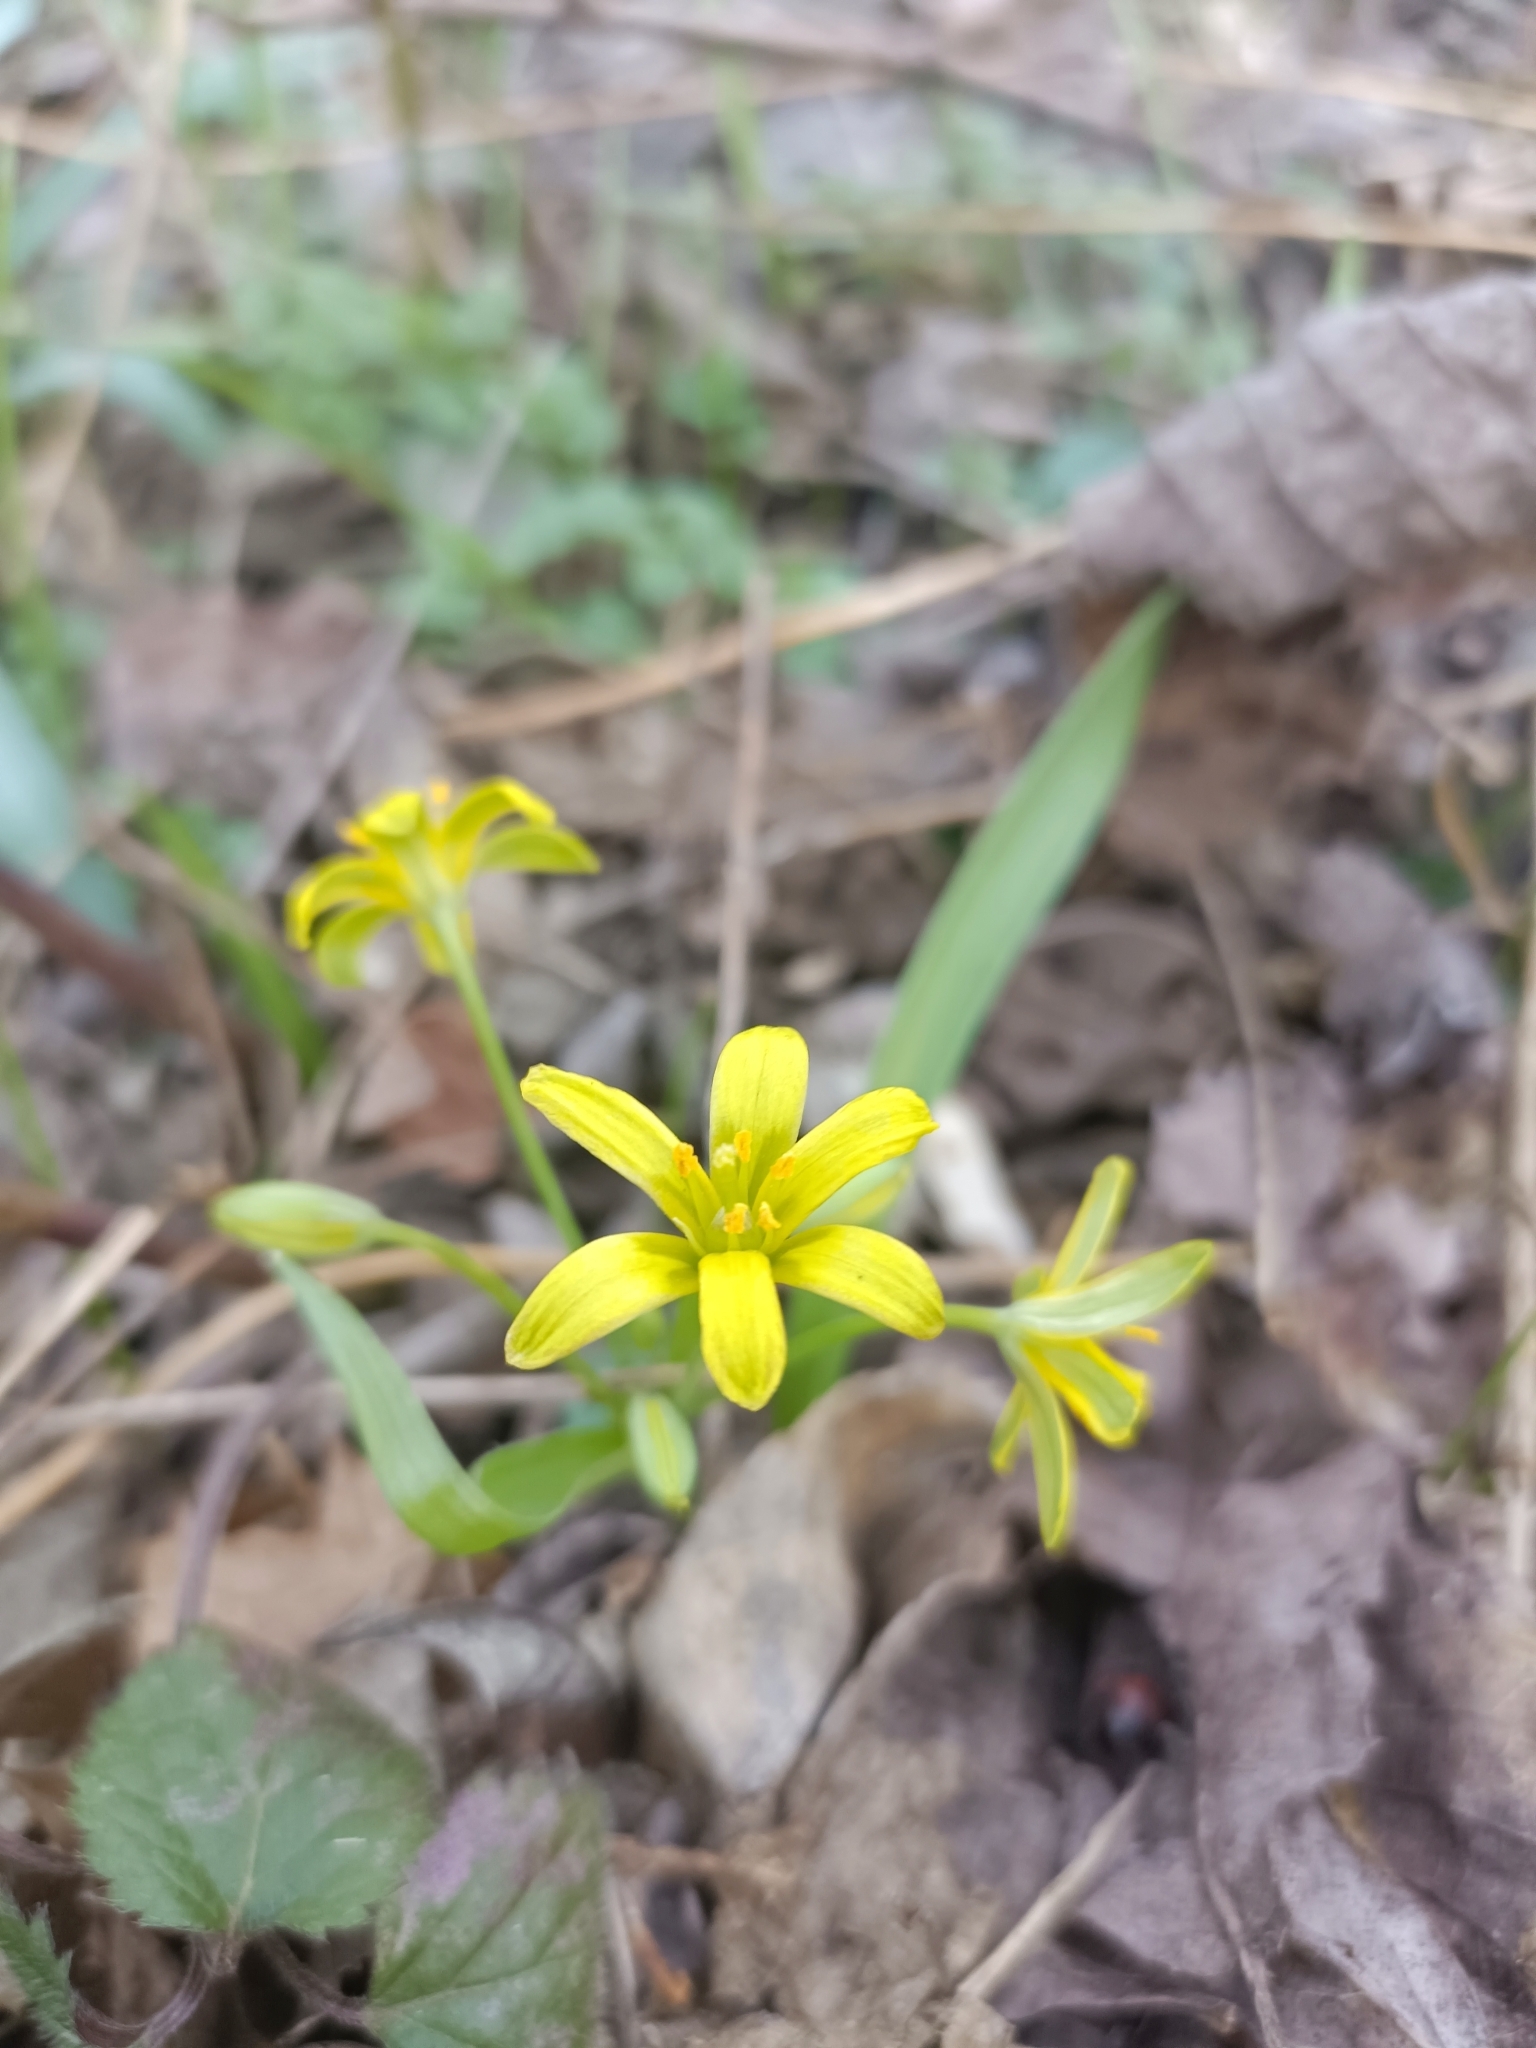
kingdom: Plantae
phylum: Tracheophyta
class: Liliopsida
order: Liliales
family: Liliaceae
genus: Gagea
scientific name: Gagea lutea
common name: Yellow star-of-bethlehem
